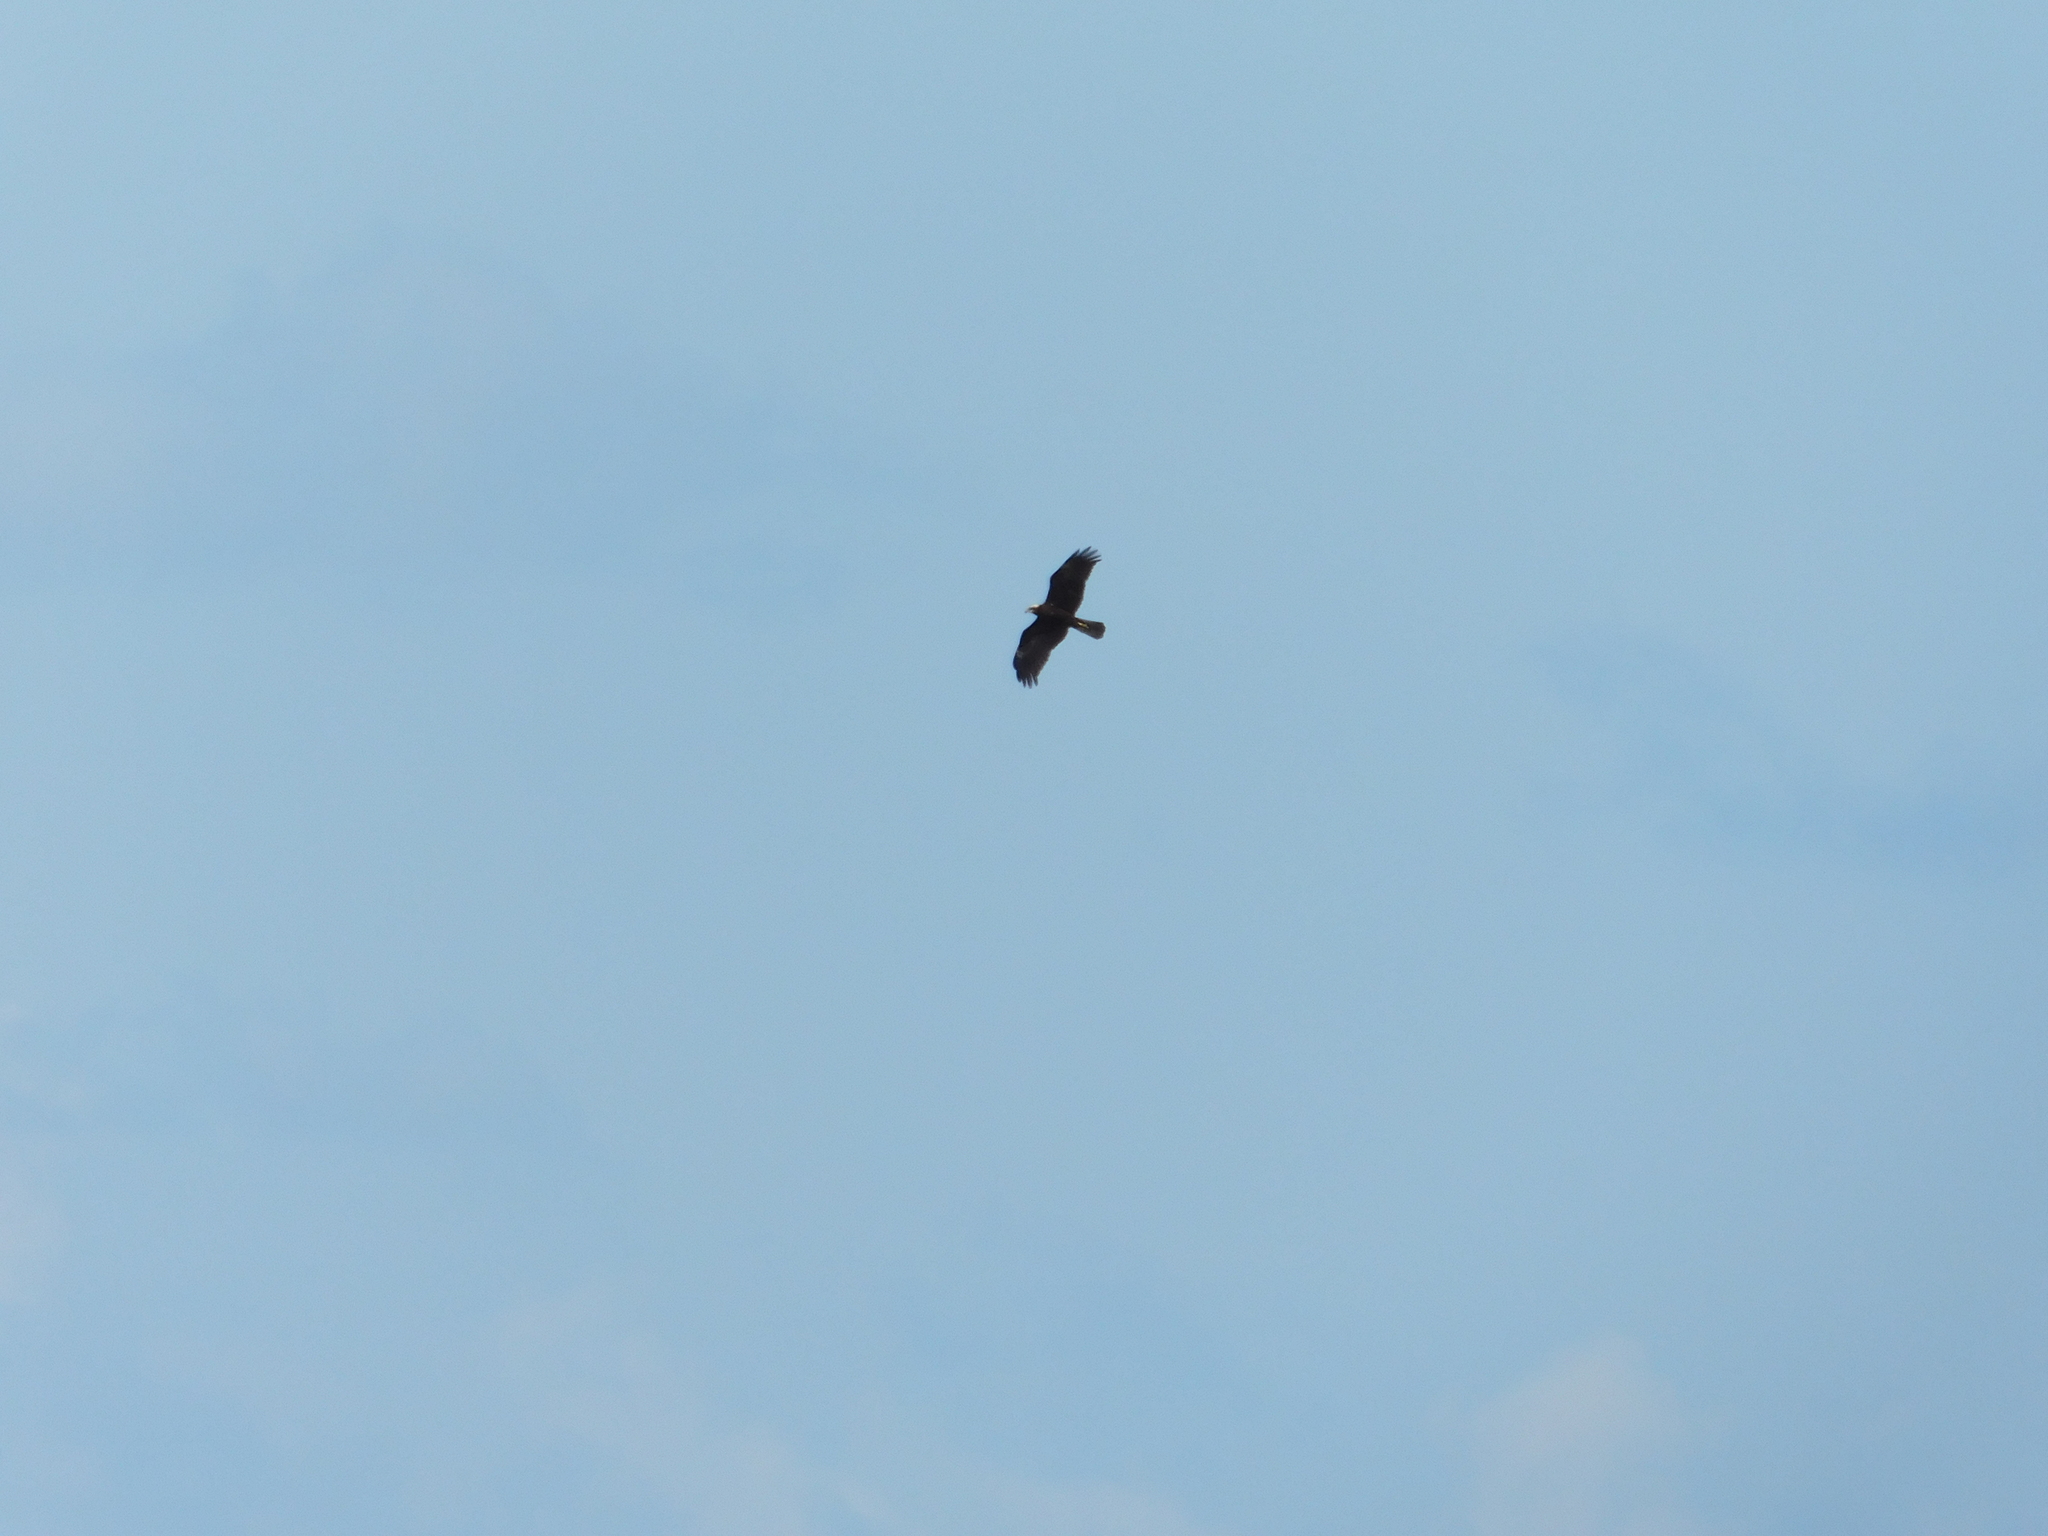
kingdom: Animalia
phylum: Chordata
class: Aves
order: Accipitriformes
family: Accipitridae
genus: Circus
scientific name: Circus aeruginosus
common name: Western marsh harrier
